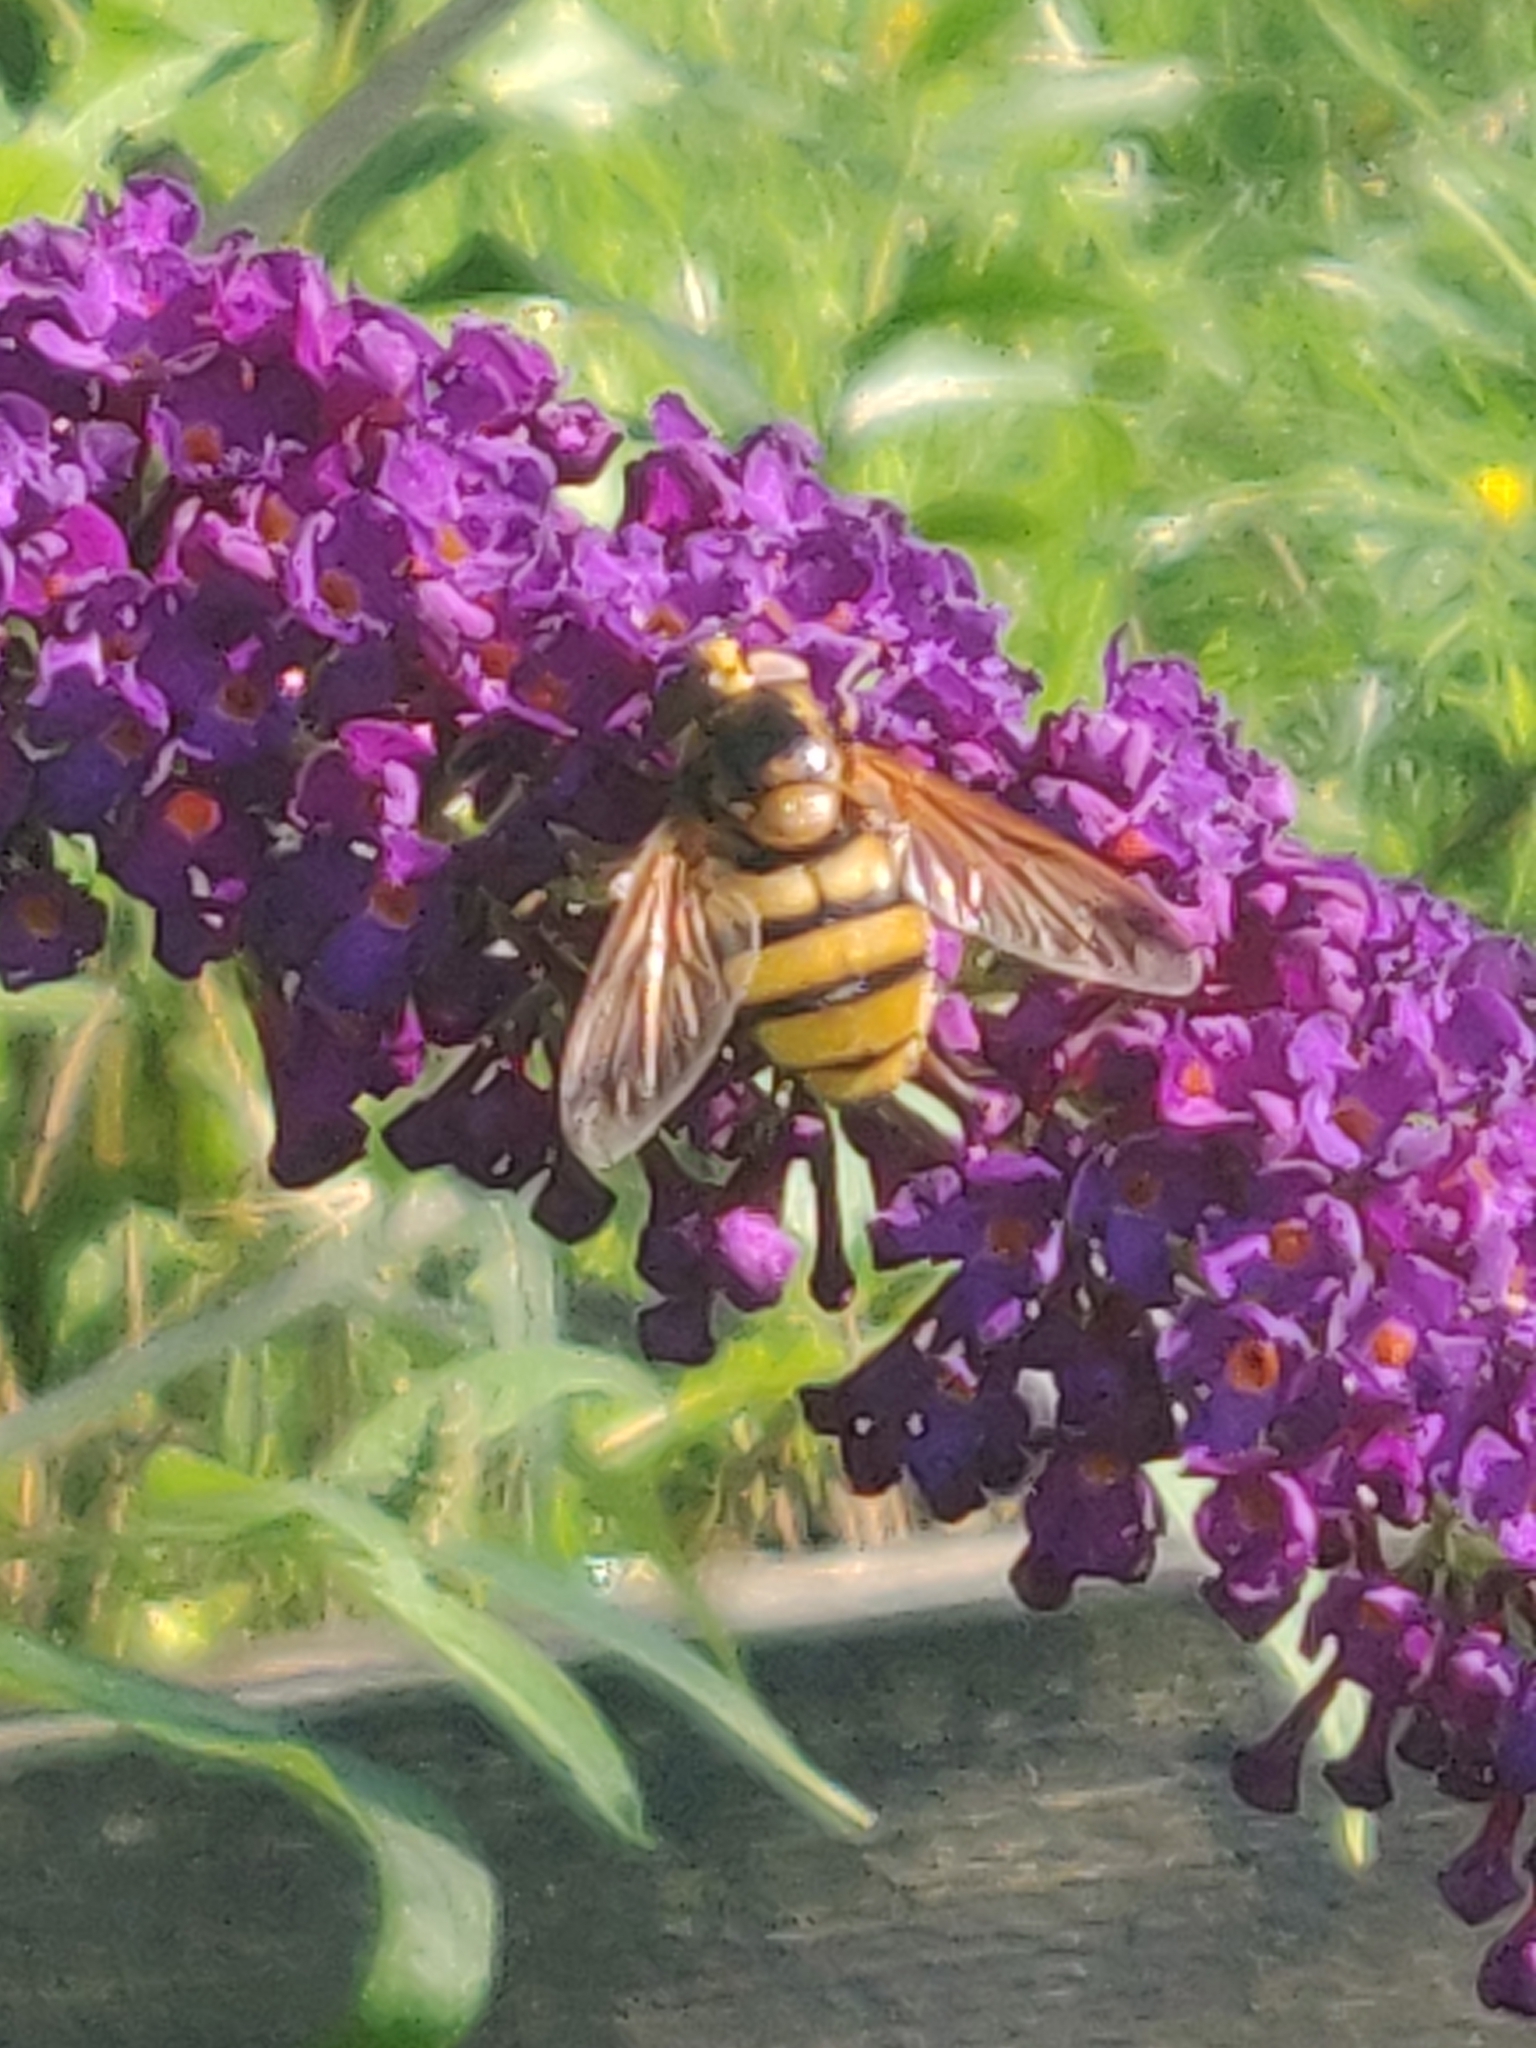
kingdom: Animalia
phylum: Arthropoda
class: Insecta
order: Diptera
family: Syrphidae
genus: Volucella
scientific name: Volucella inanis
